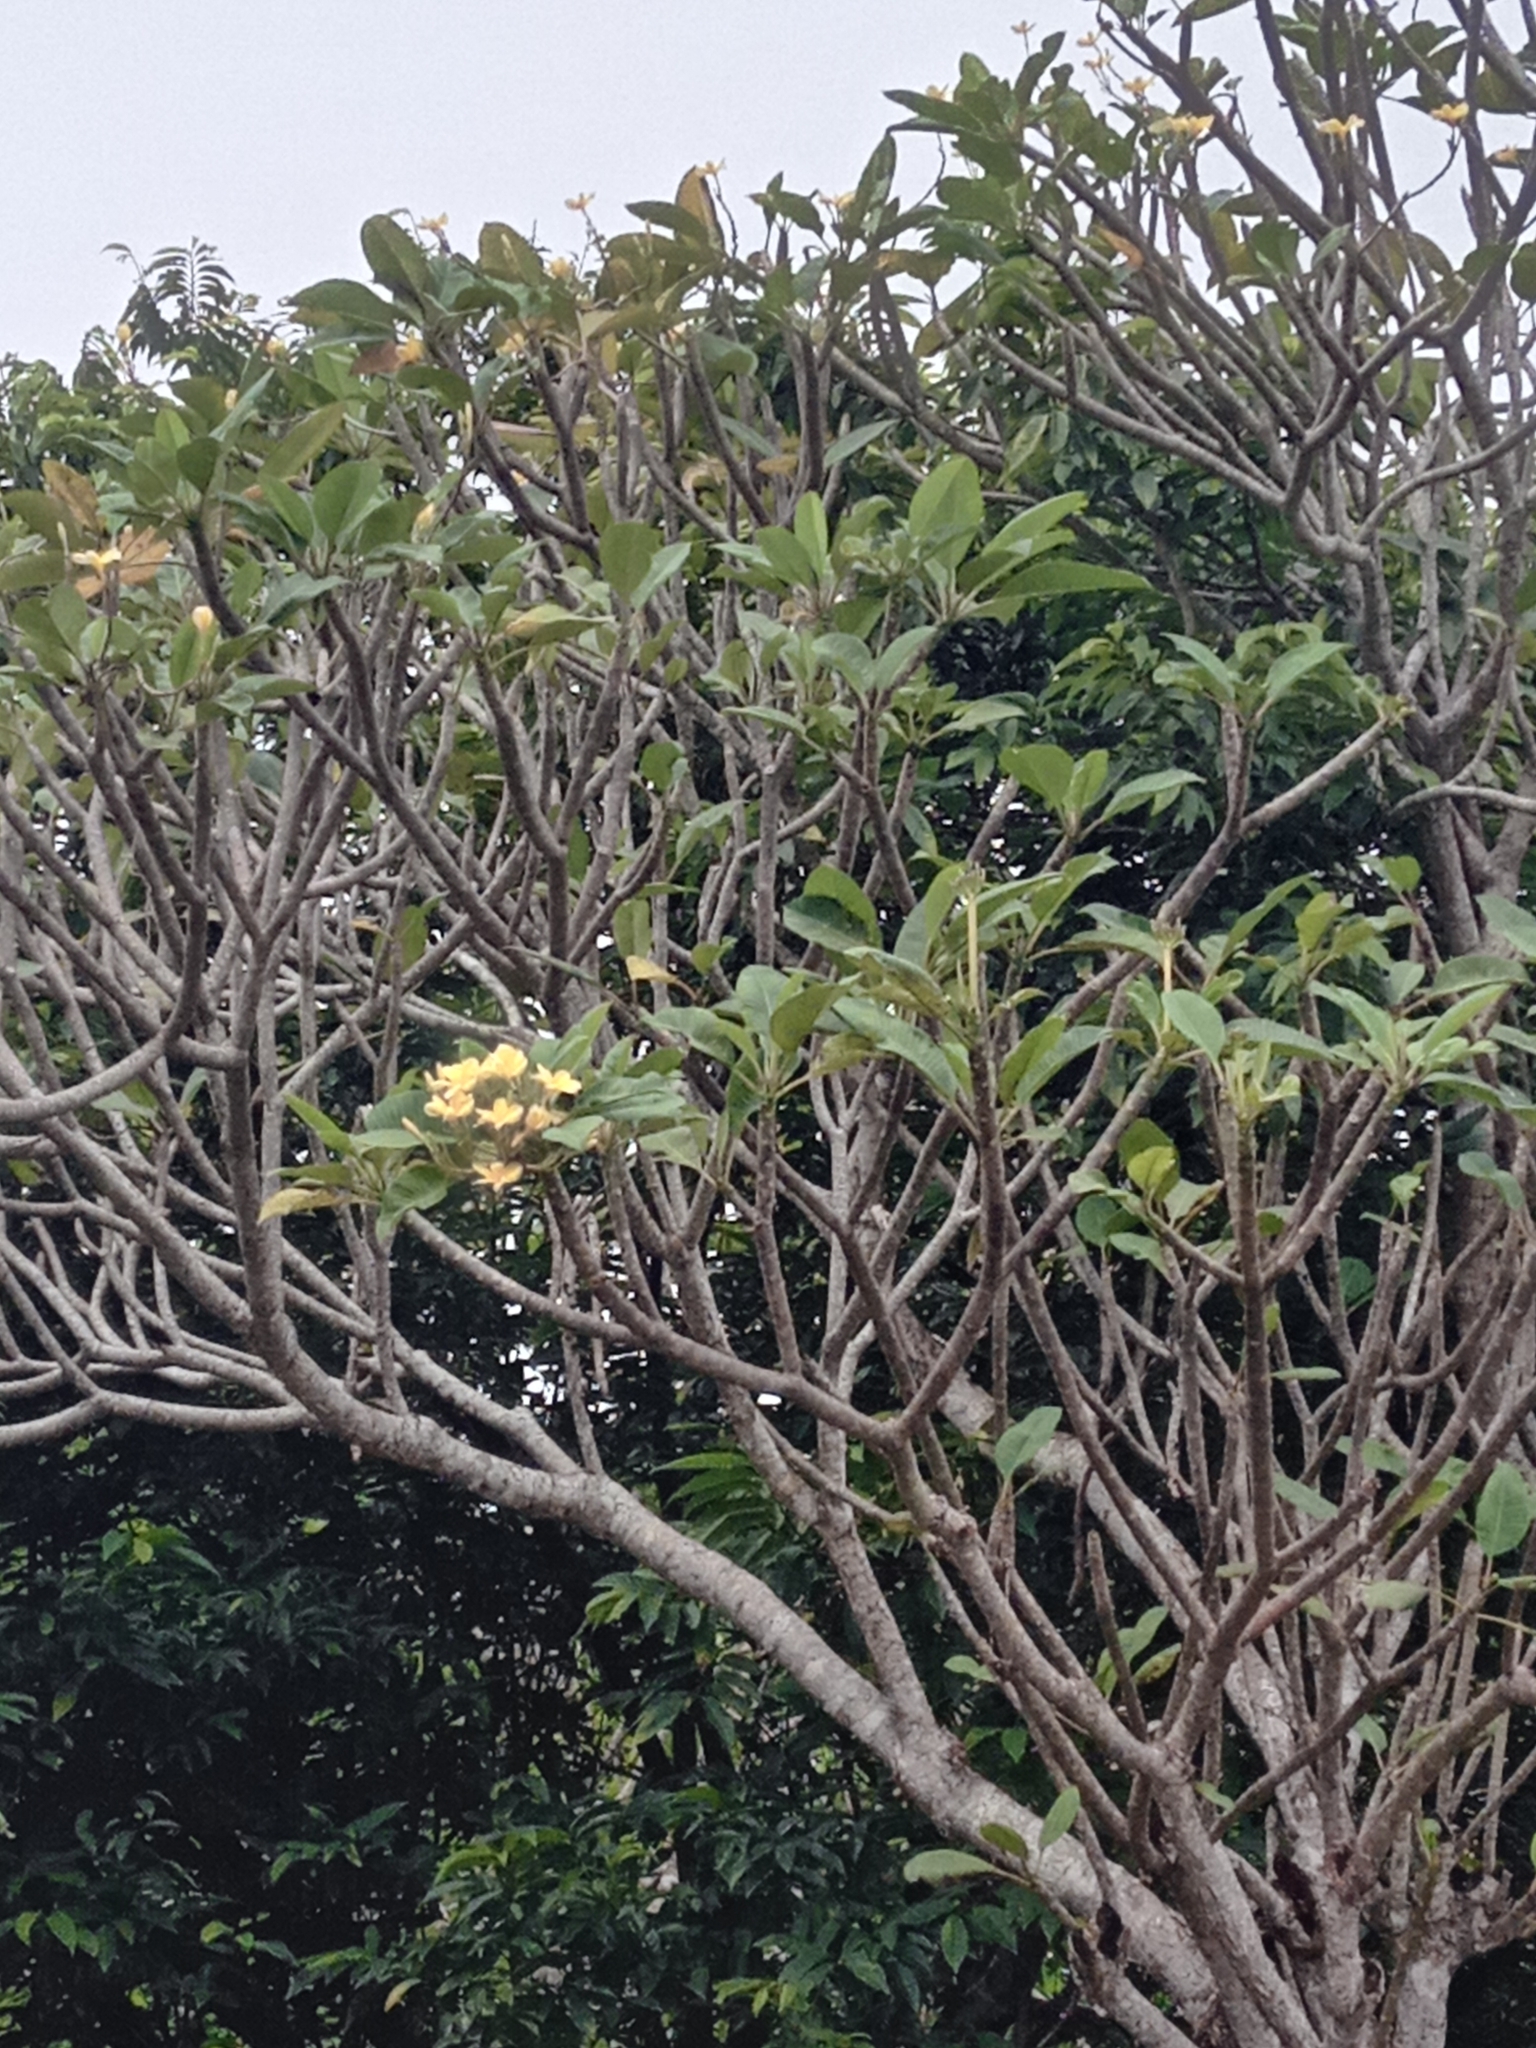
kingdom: Plantae
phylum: Tracheophyta
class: Magnoliopsida
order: Gentianales
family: Apocynaceae
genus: Plumeria
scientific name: Plumeria rubra
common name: Pagoda-tree
